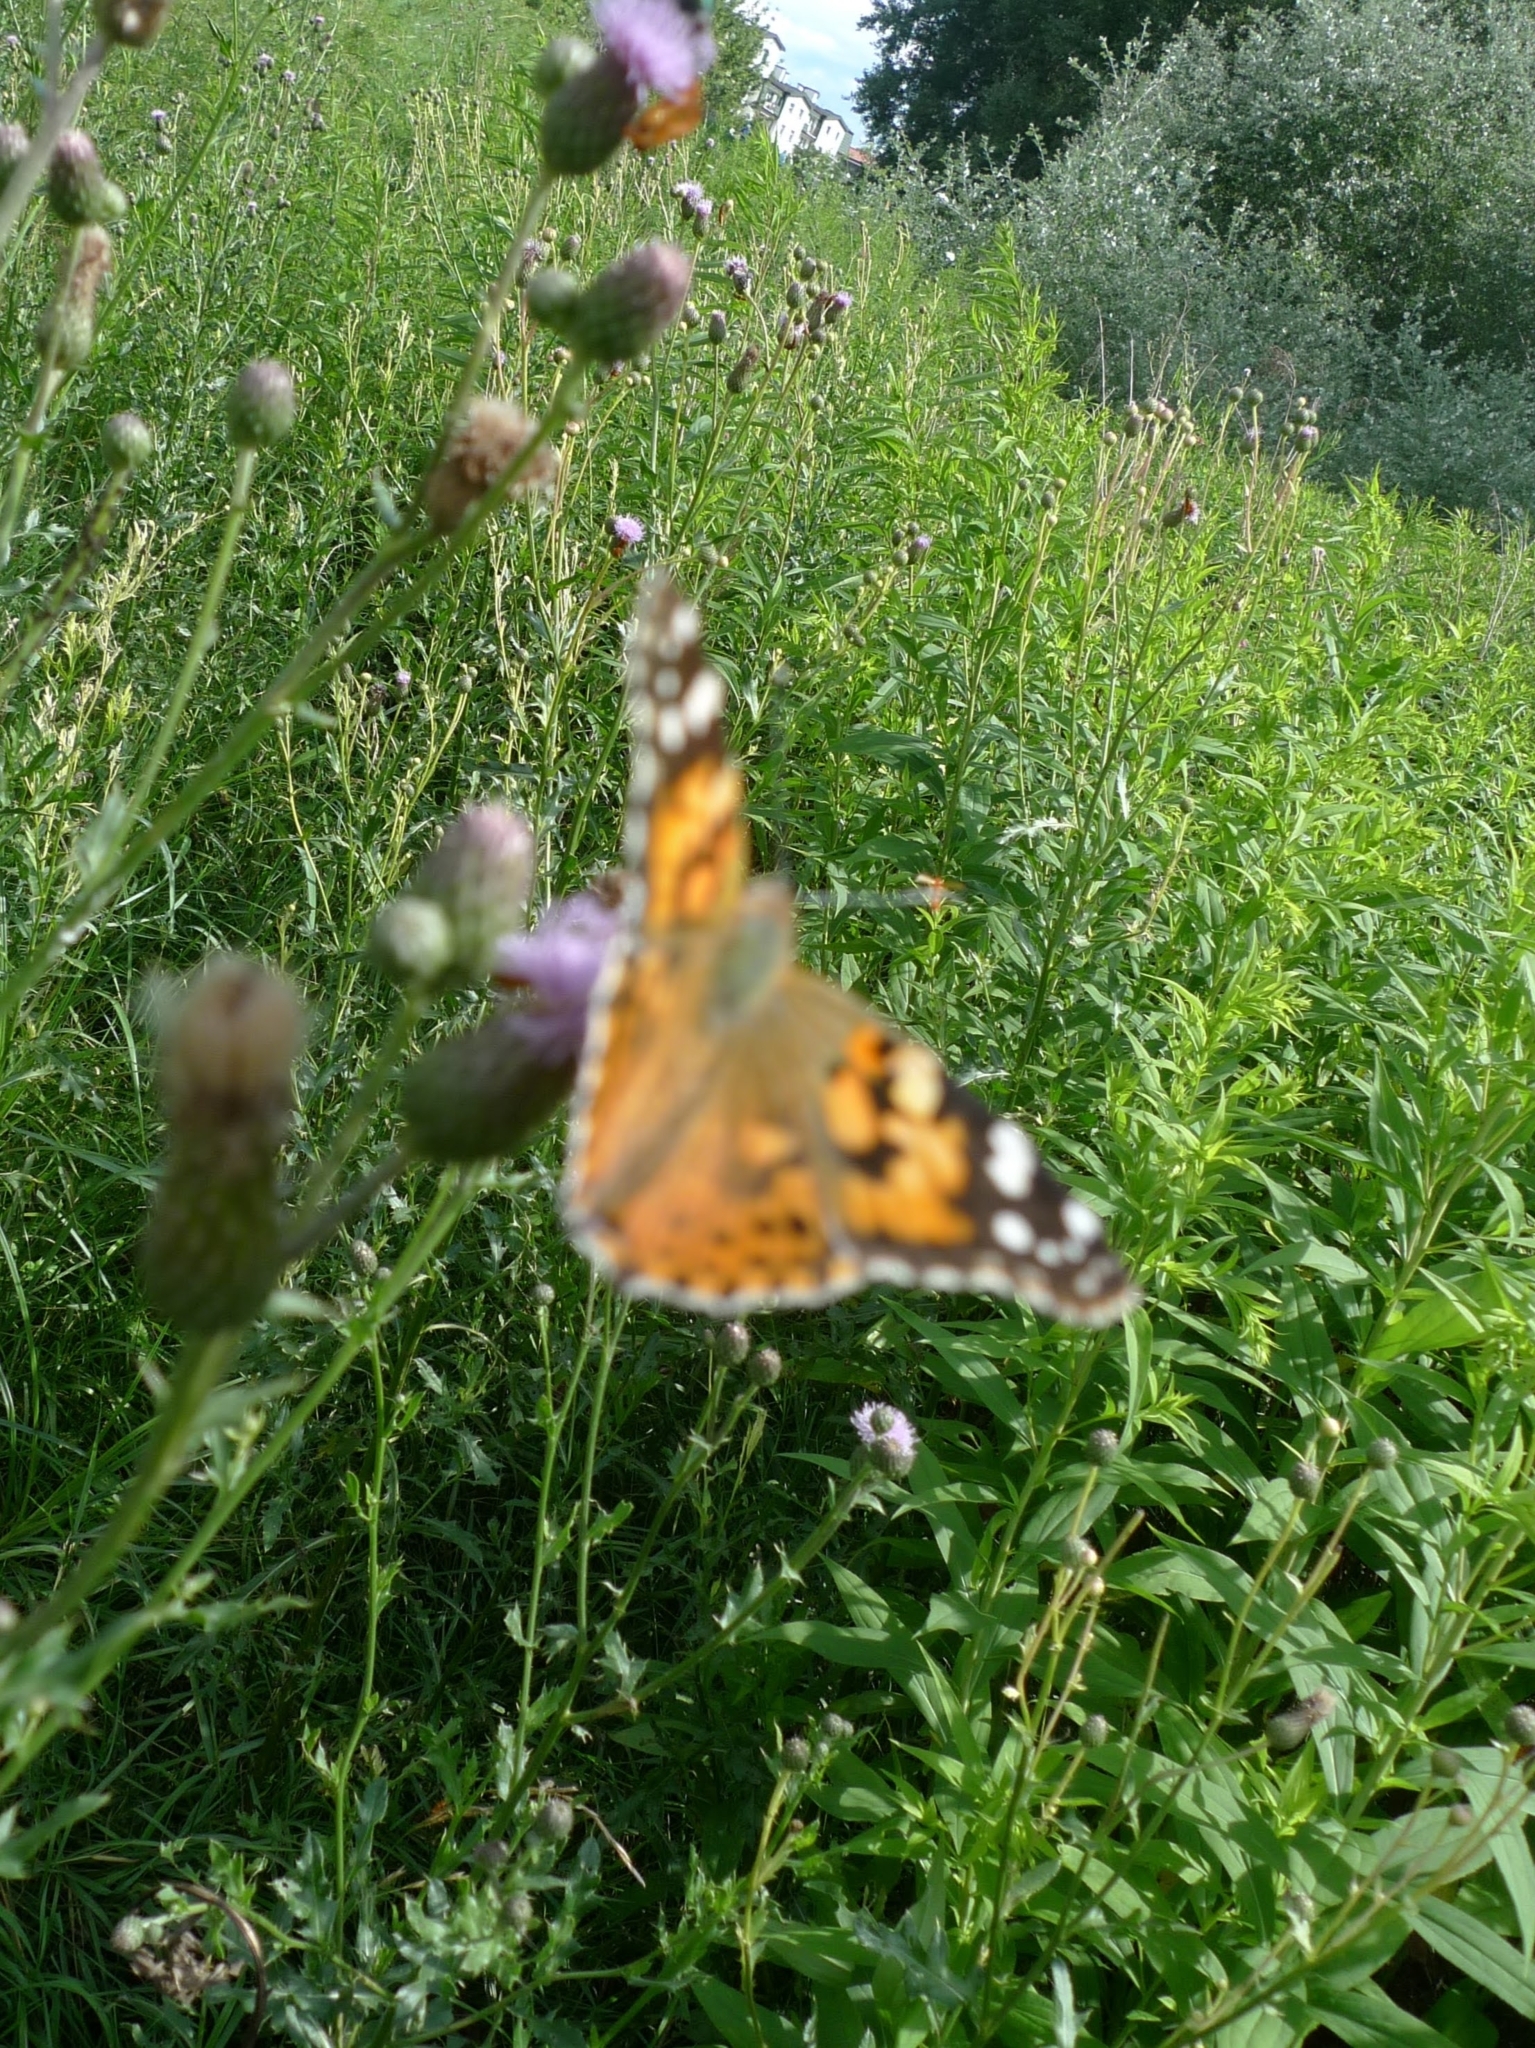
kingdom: Animalia
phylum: Arthropoda
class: Insecta
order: Lepidoptera
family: Nymphalidae
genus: Vanessa
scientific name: Vanessa cardui
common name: Painted lady
